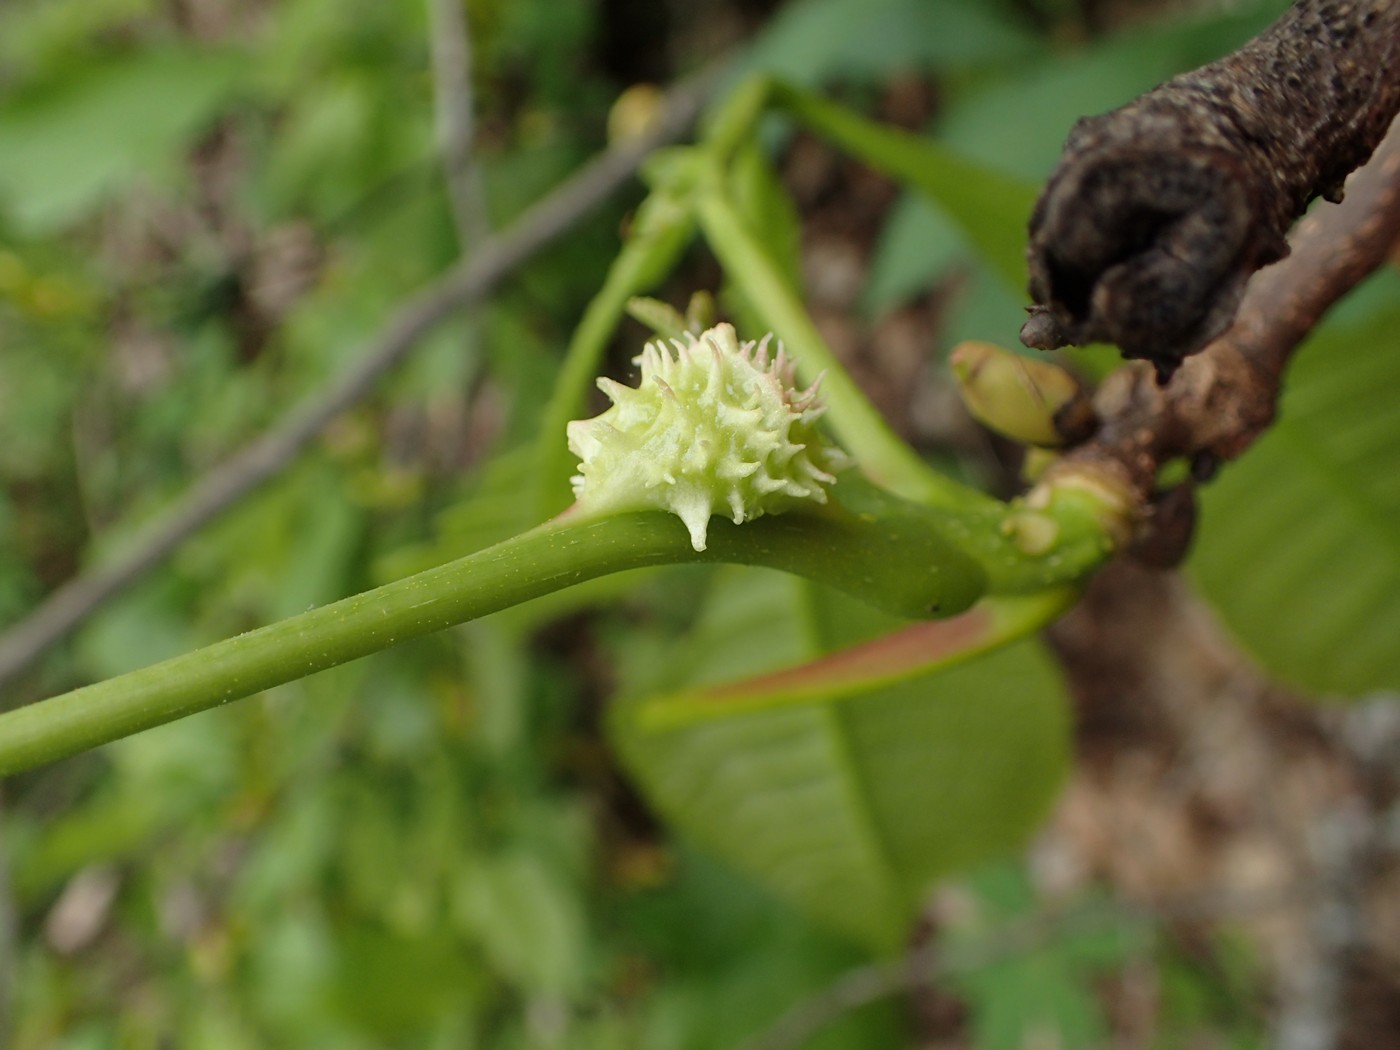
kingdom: Animalia
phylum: Arthropoda
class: Insecta
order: Hemiptera
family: Phylloxeridae
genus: Phylloxera
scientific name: Phylloxera spinosa
